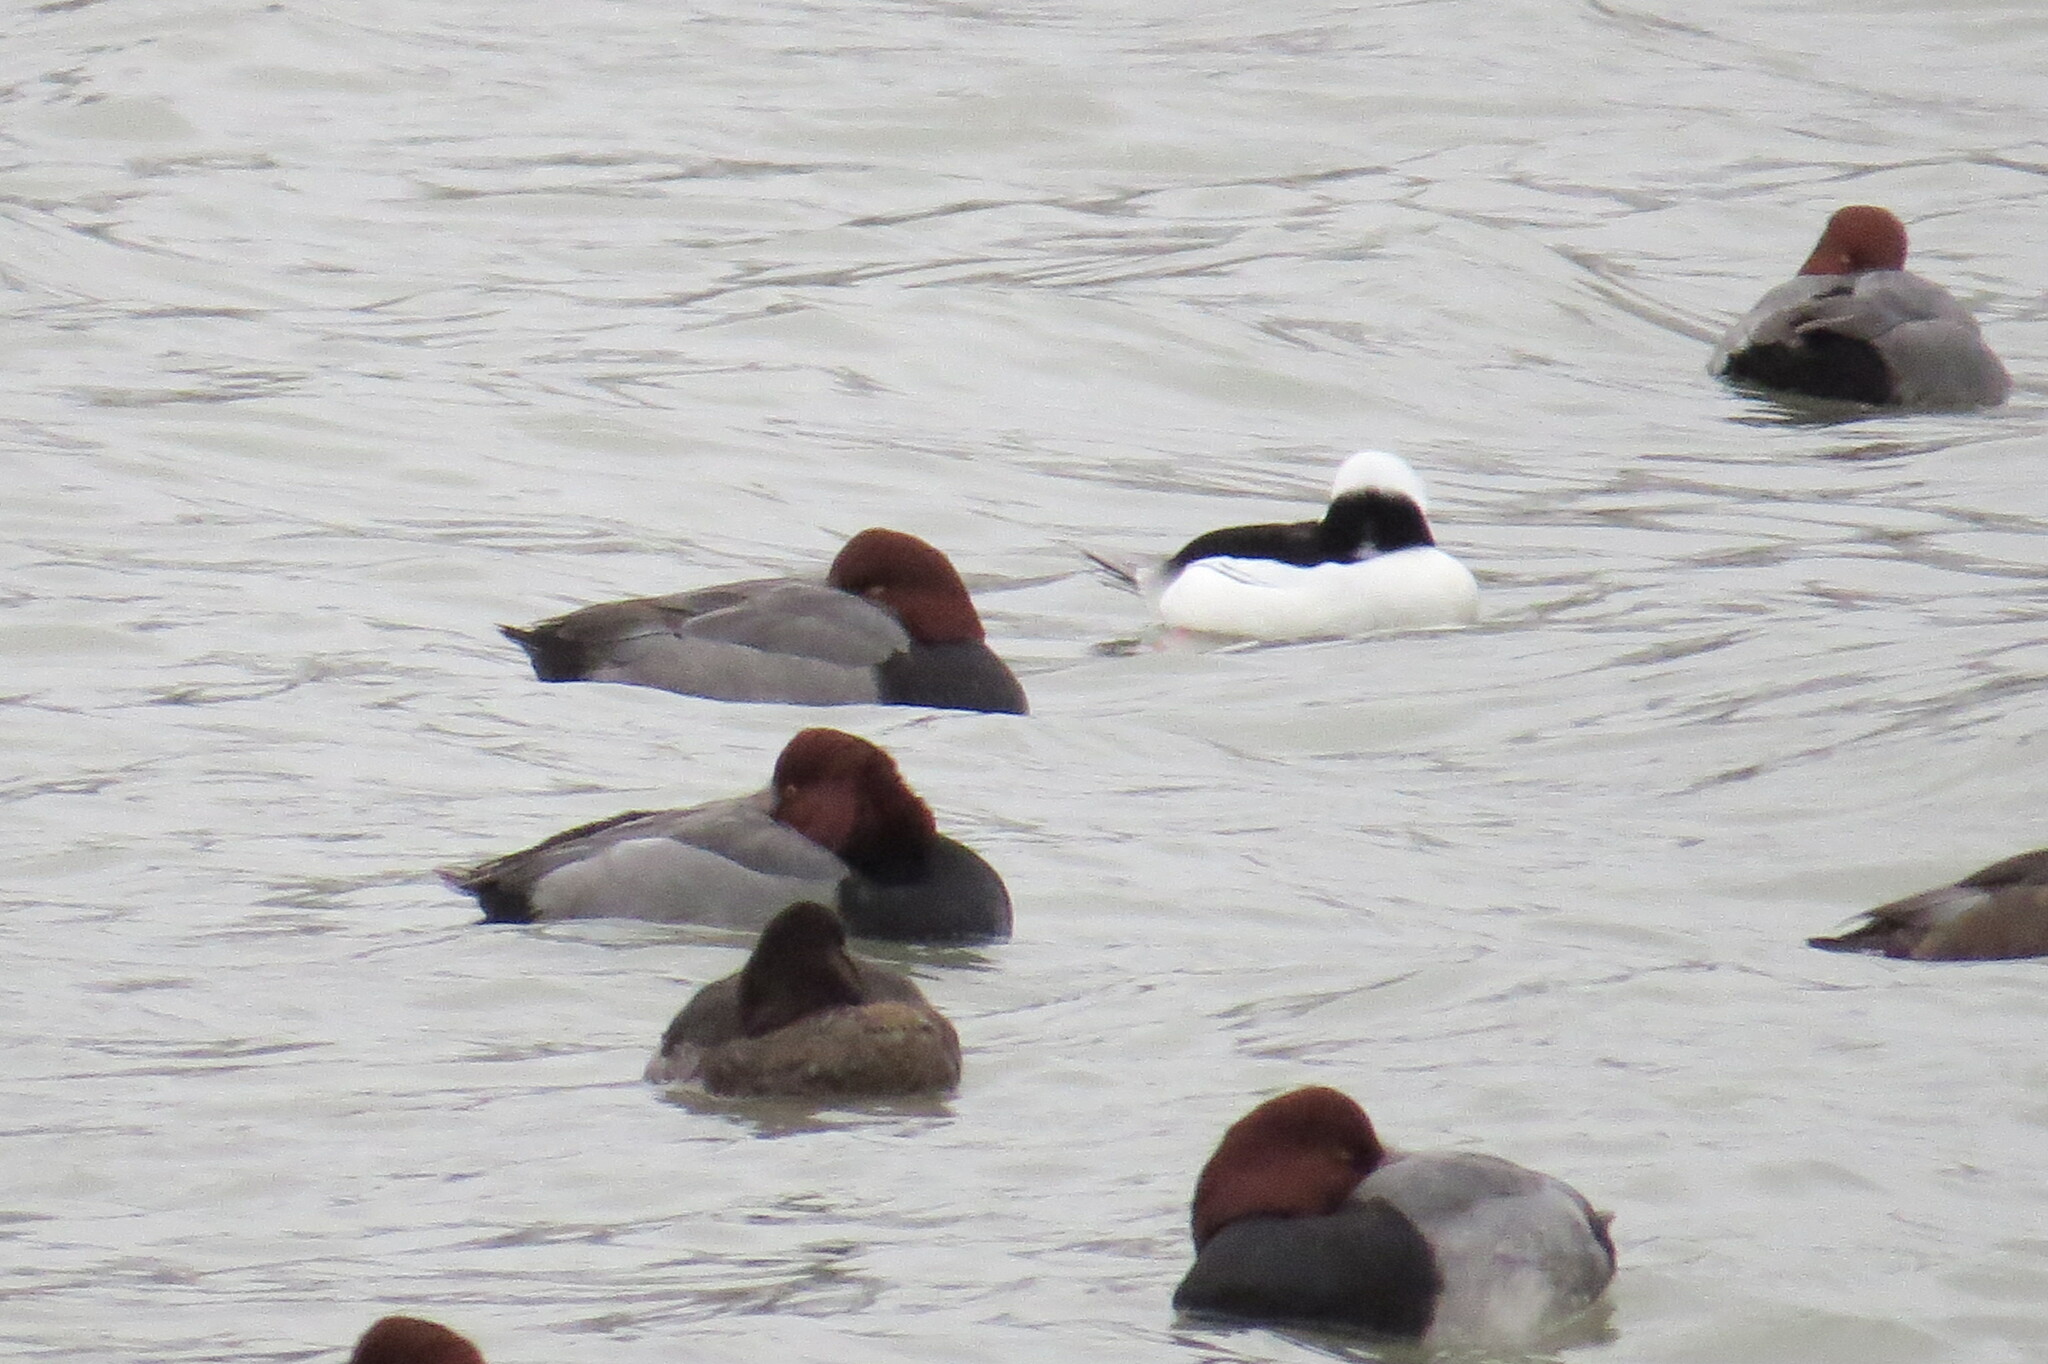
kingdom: Animalia
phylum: Chordata
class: Aves
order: Anseriformes
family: Anatidae
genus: Aythya
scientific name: Aythya americana
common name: Redhead
